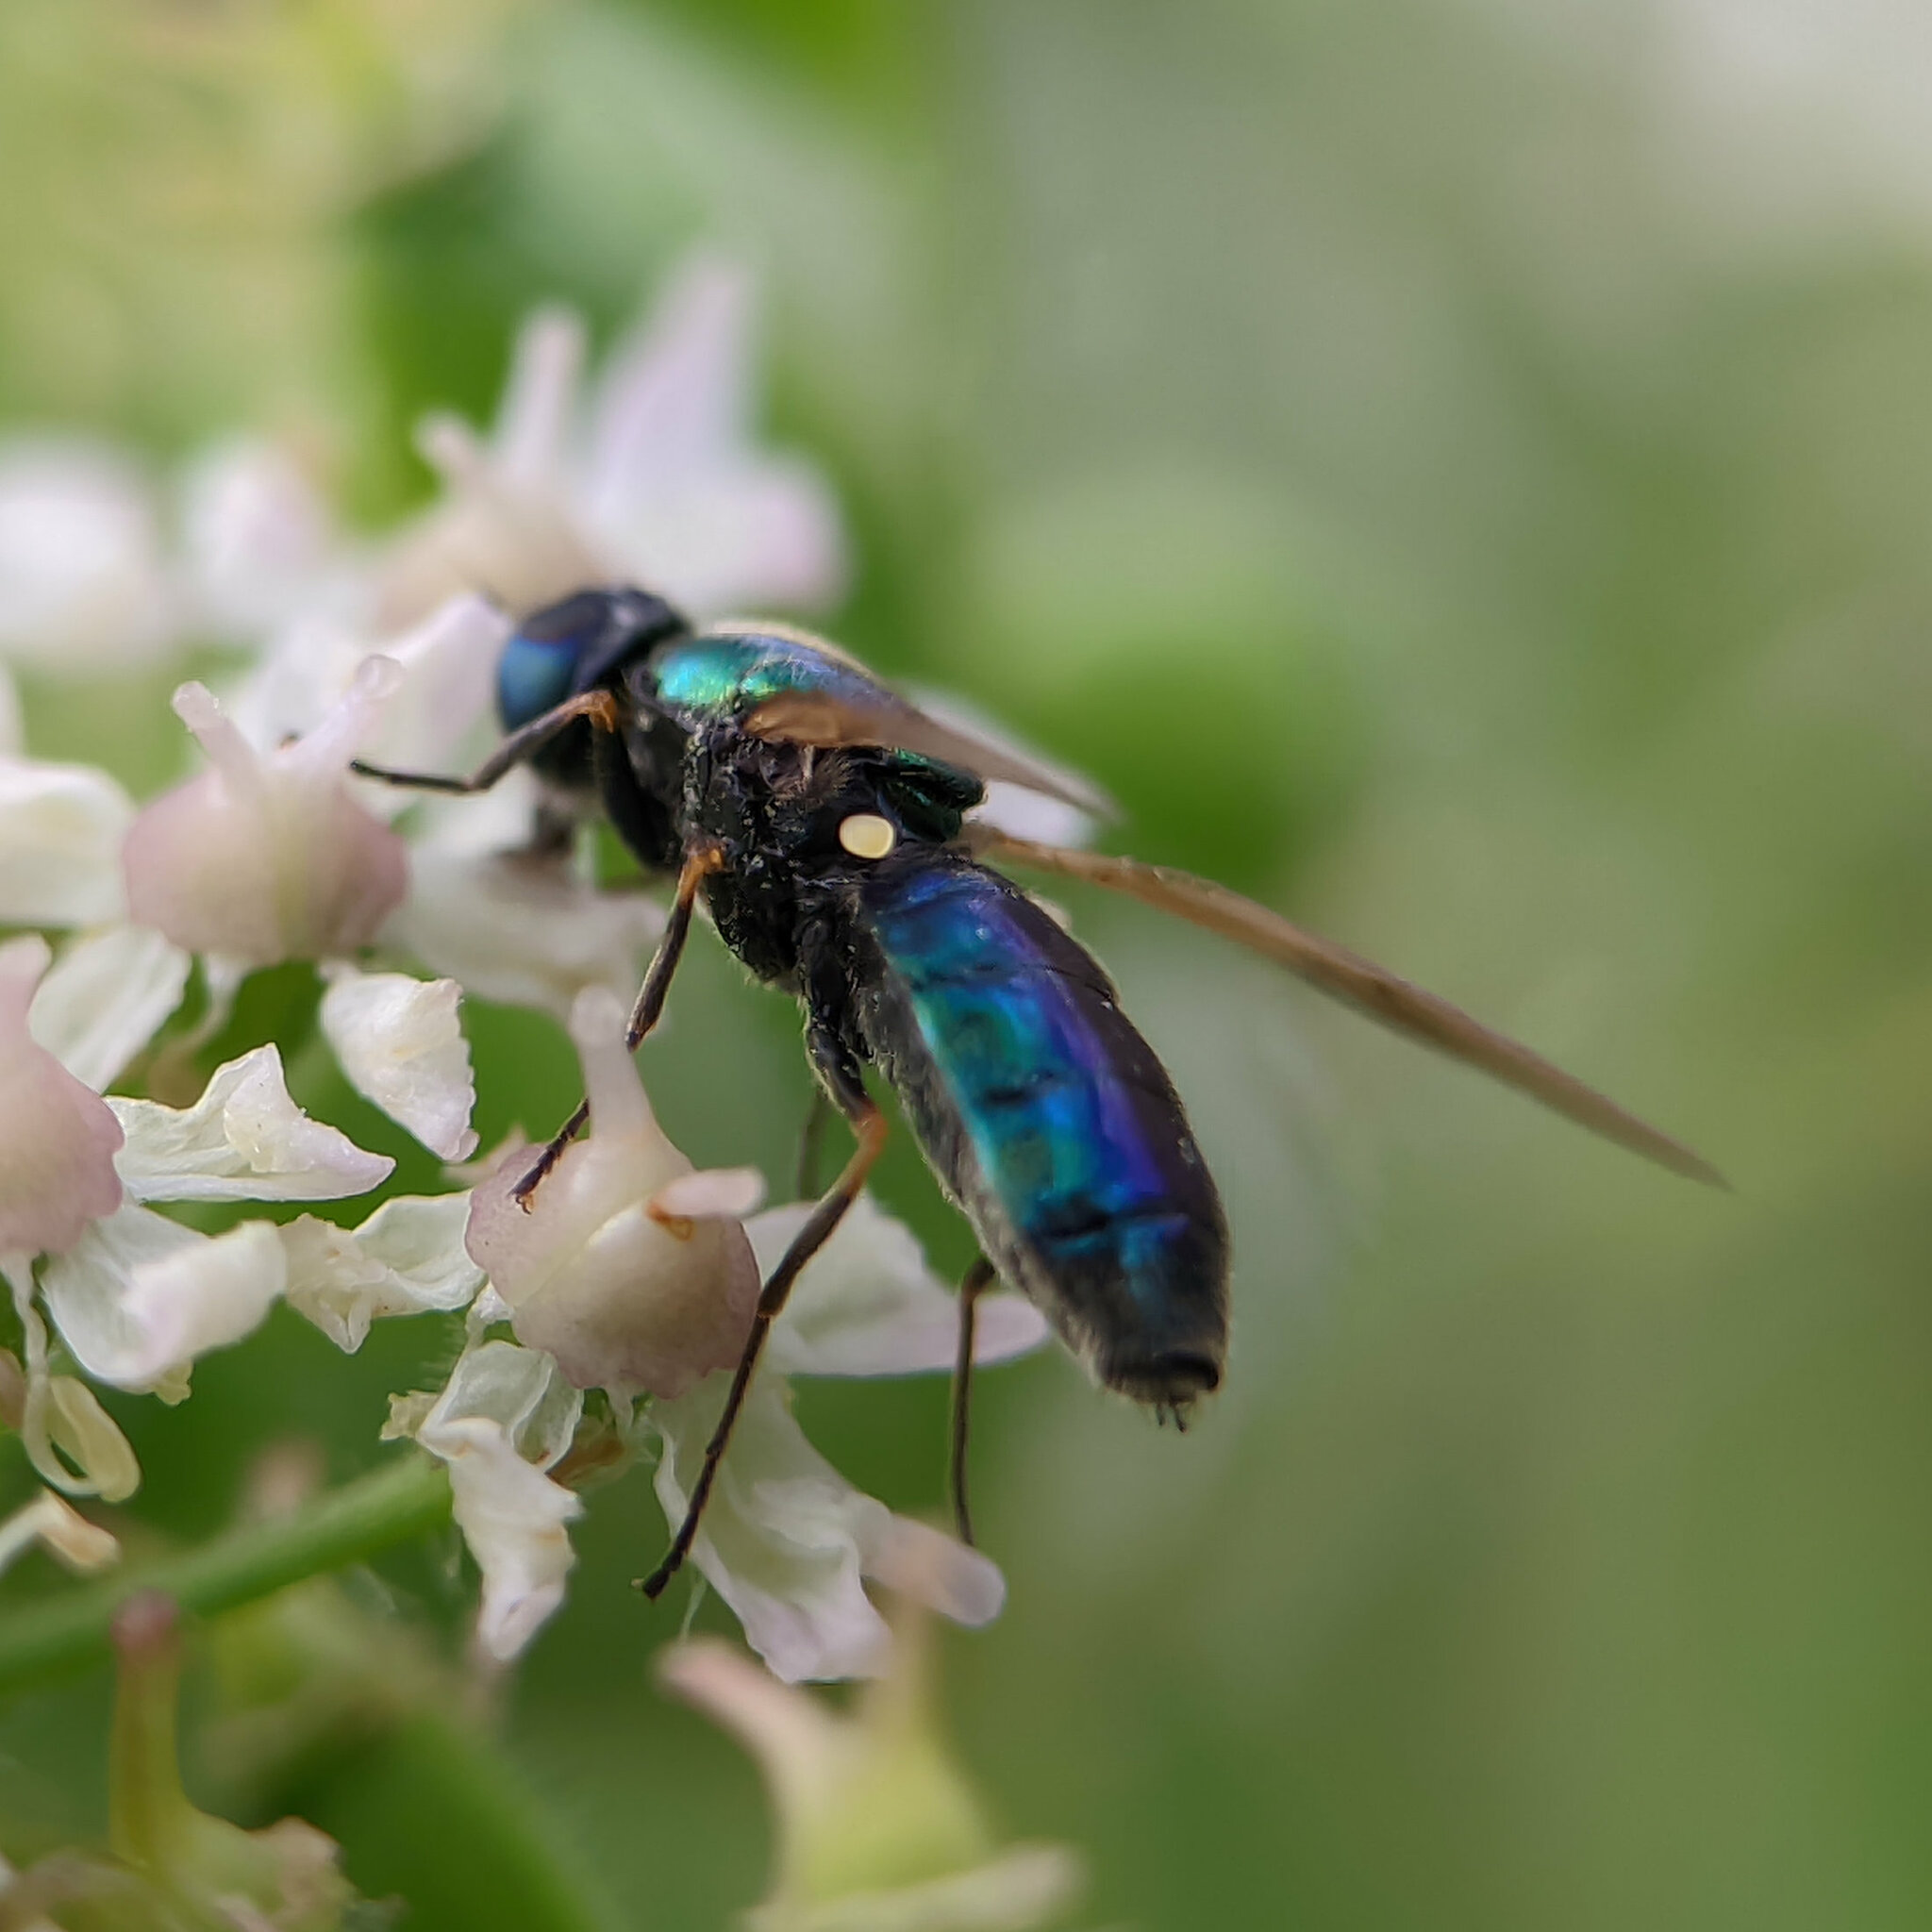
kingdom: Animalia
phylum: Arthropoda
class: Insecta
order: Diptera
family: Stratiomyidae
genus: Chloromyia
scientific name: Chloromyia formosa
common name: Soldier fly
